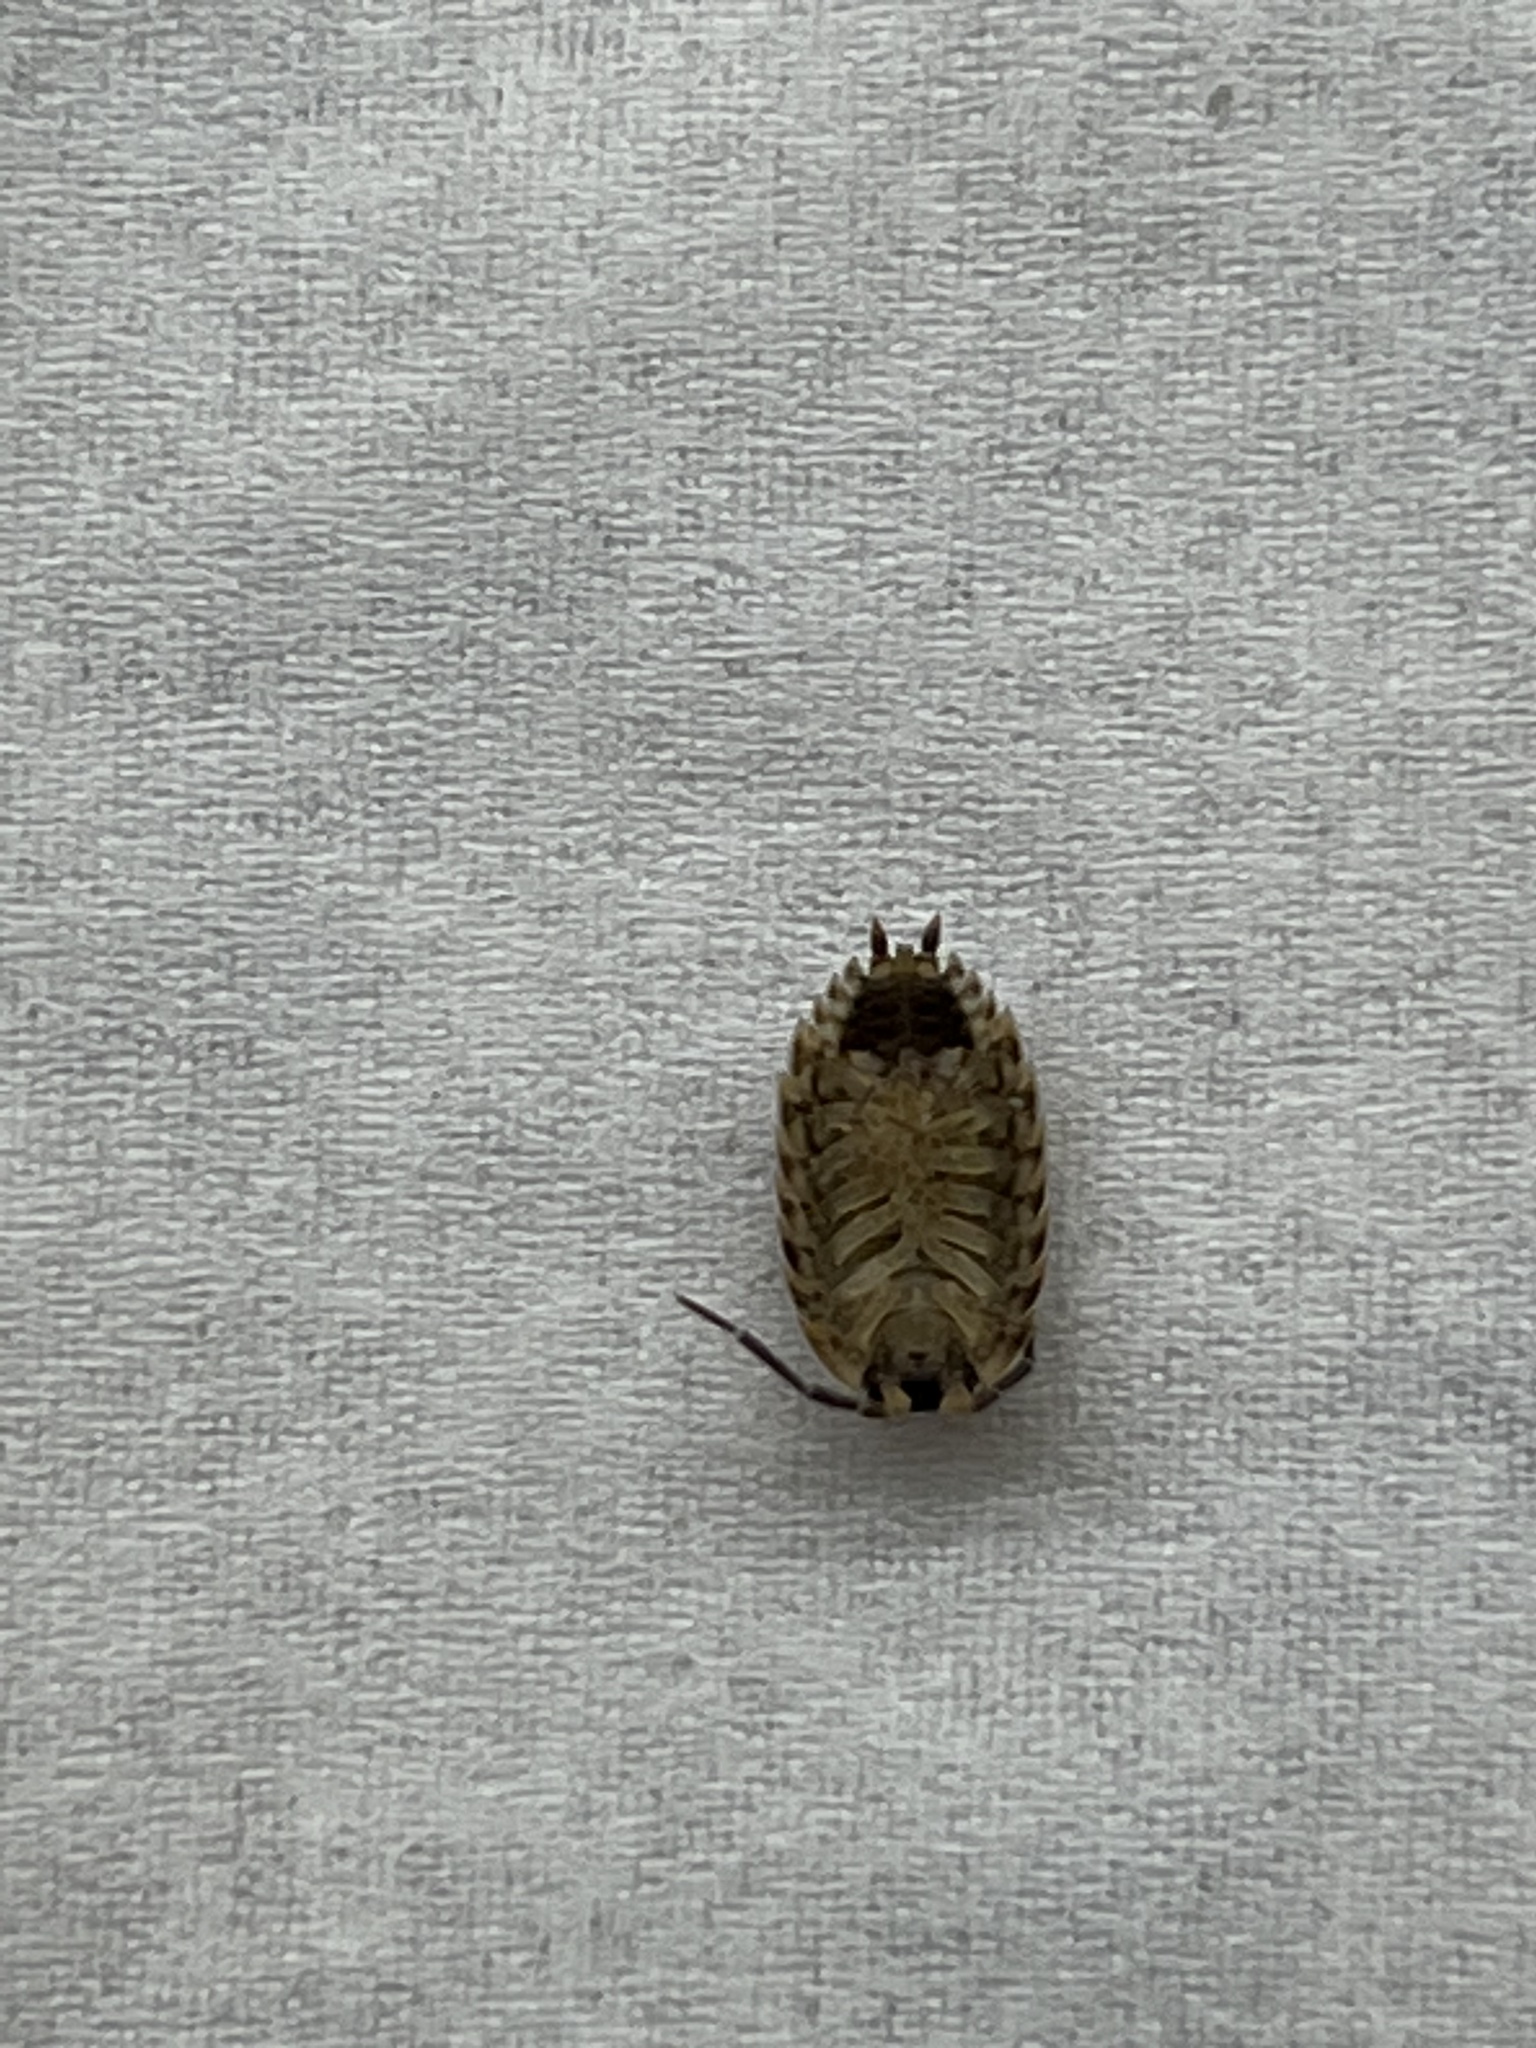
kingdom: Animalia
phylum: Arthropoda
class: Malacostraca
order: Isopoda
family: Porcellionidae
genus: Porcellio
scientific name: Porcellio spinicornis
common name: Painted woodlouse
